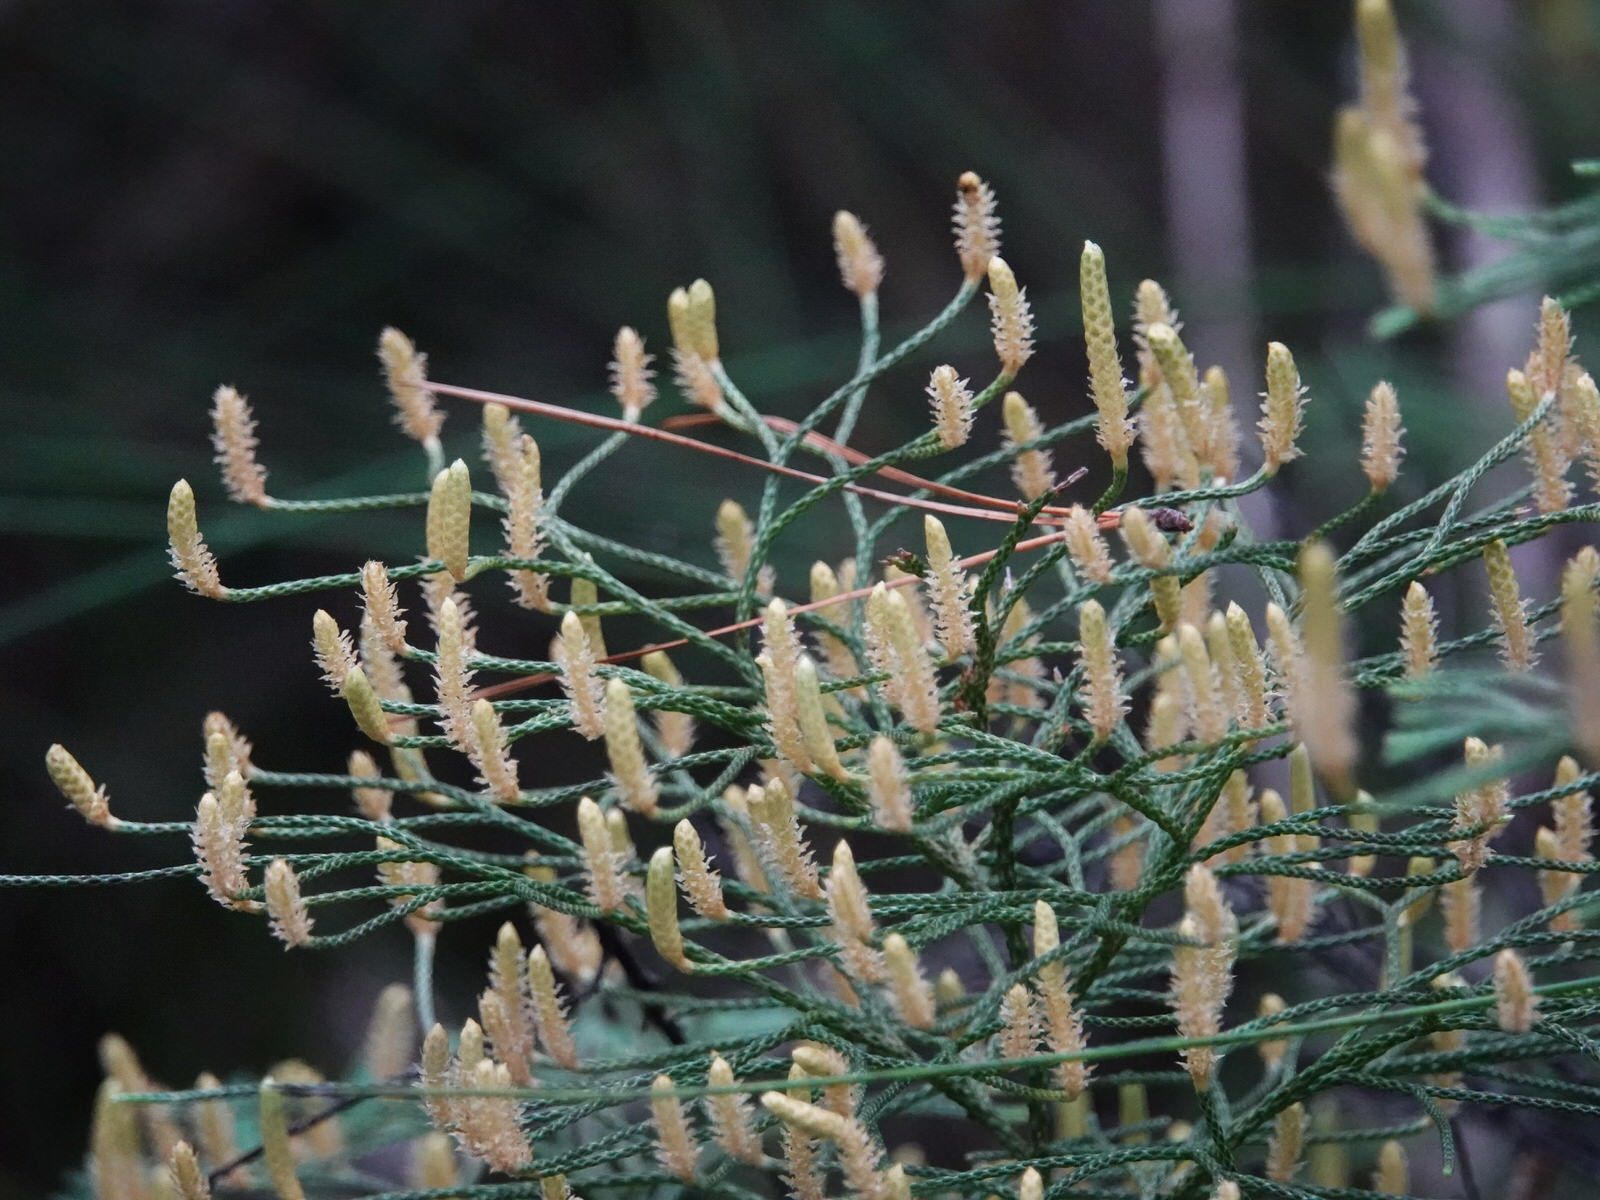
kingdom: Plantae
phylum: Tracheophyta
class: Lycopodiopsida
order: Lycopodiales
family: Lycopodiaceae
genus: Pseudolycopodium
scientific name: Pseudolycopodium densum
